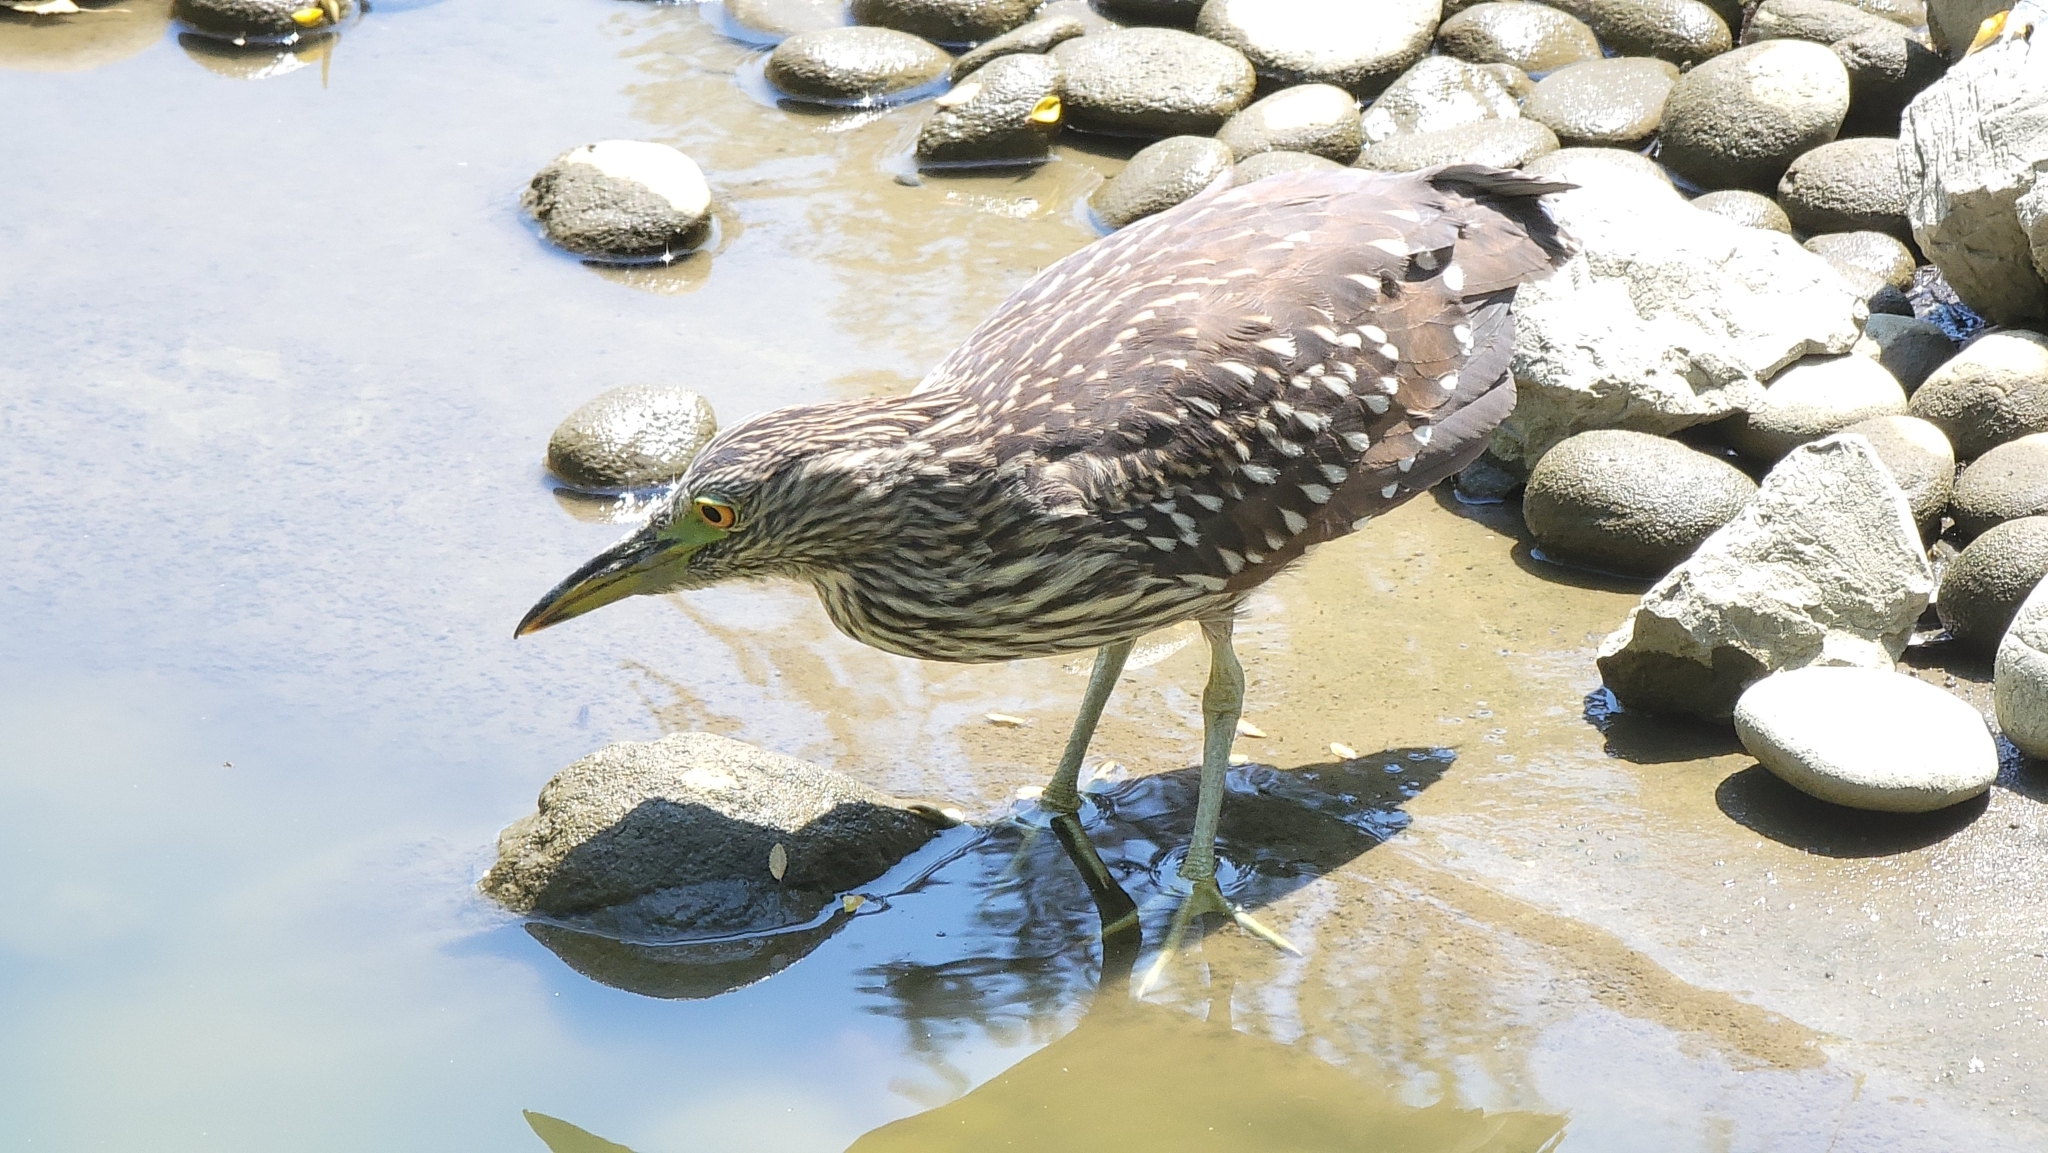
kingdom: Animalia
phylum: Chordata
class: Aves
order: Pelecaniformes
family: Ardeidae
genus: Nycticorax
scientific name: Nycticorax nycticorax
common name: Black-crowned night heron
